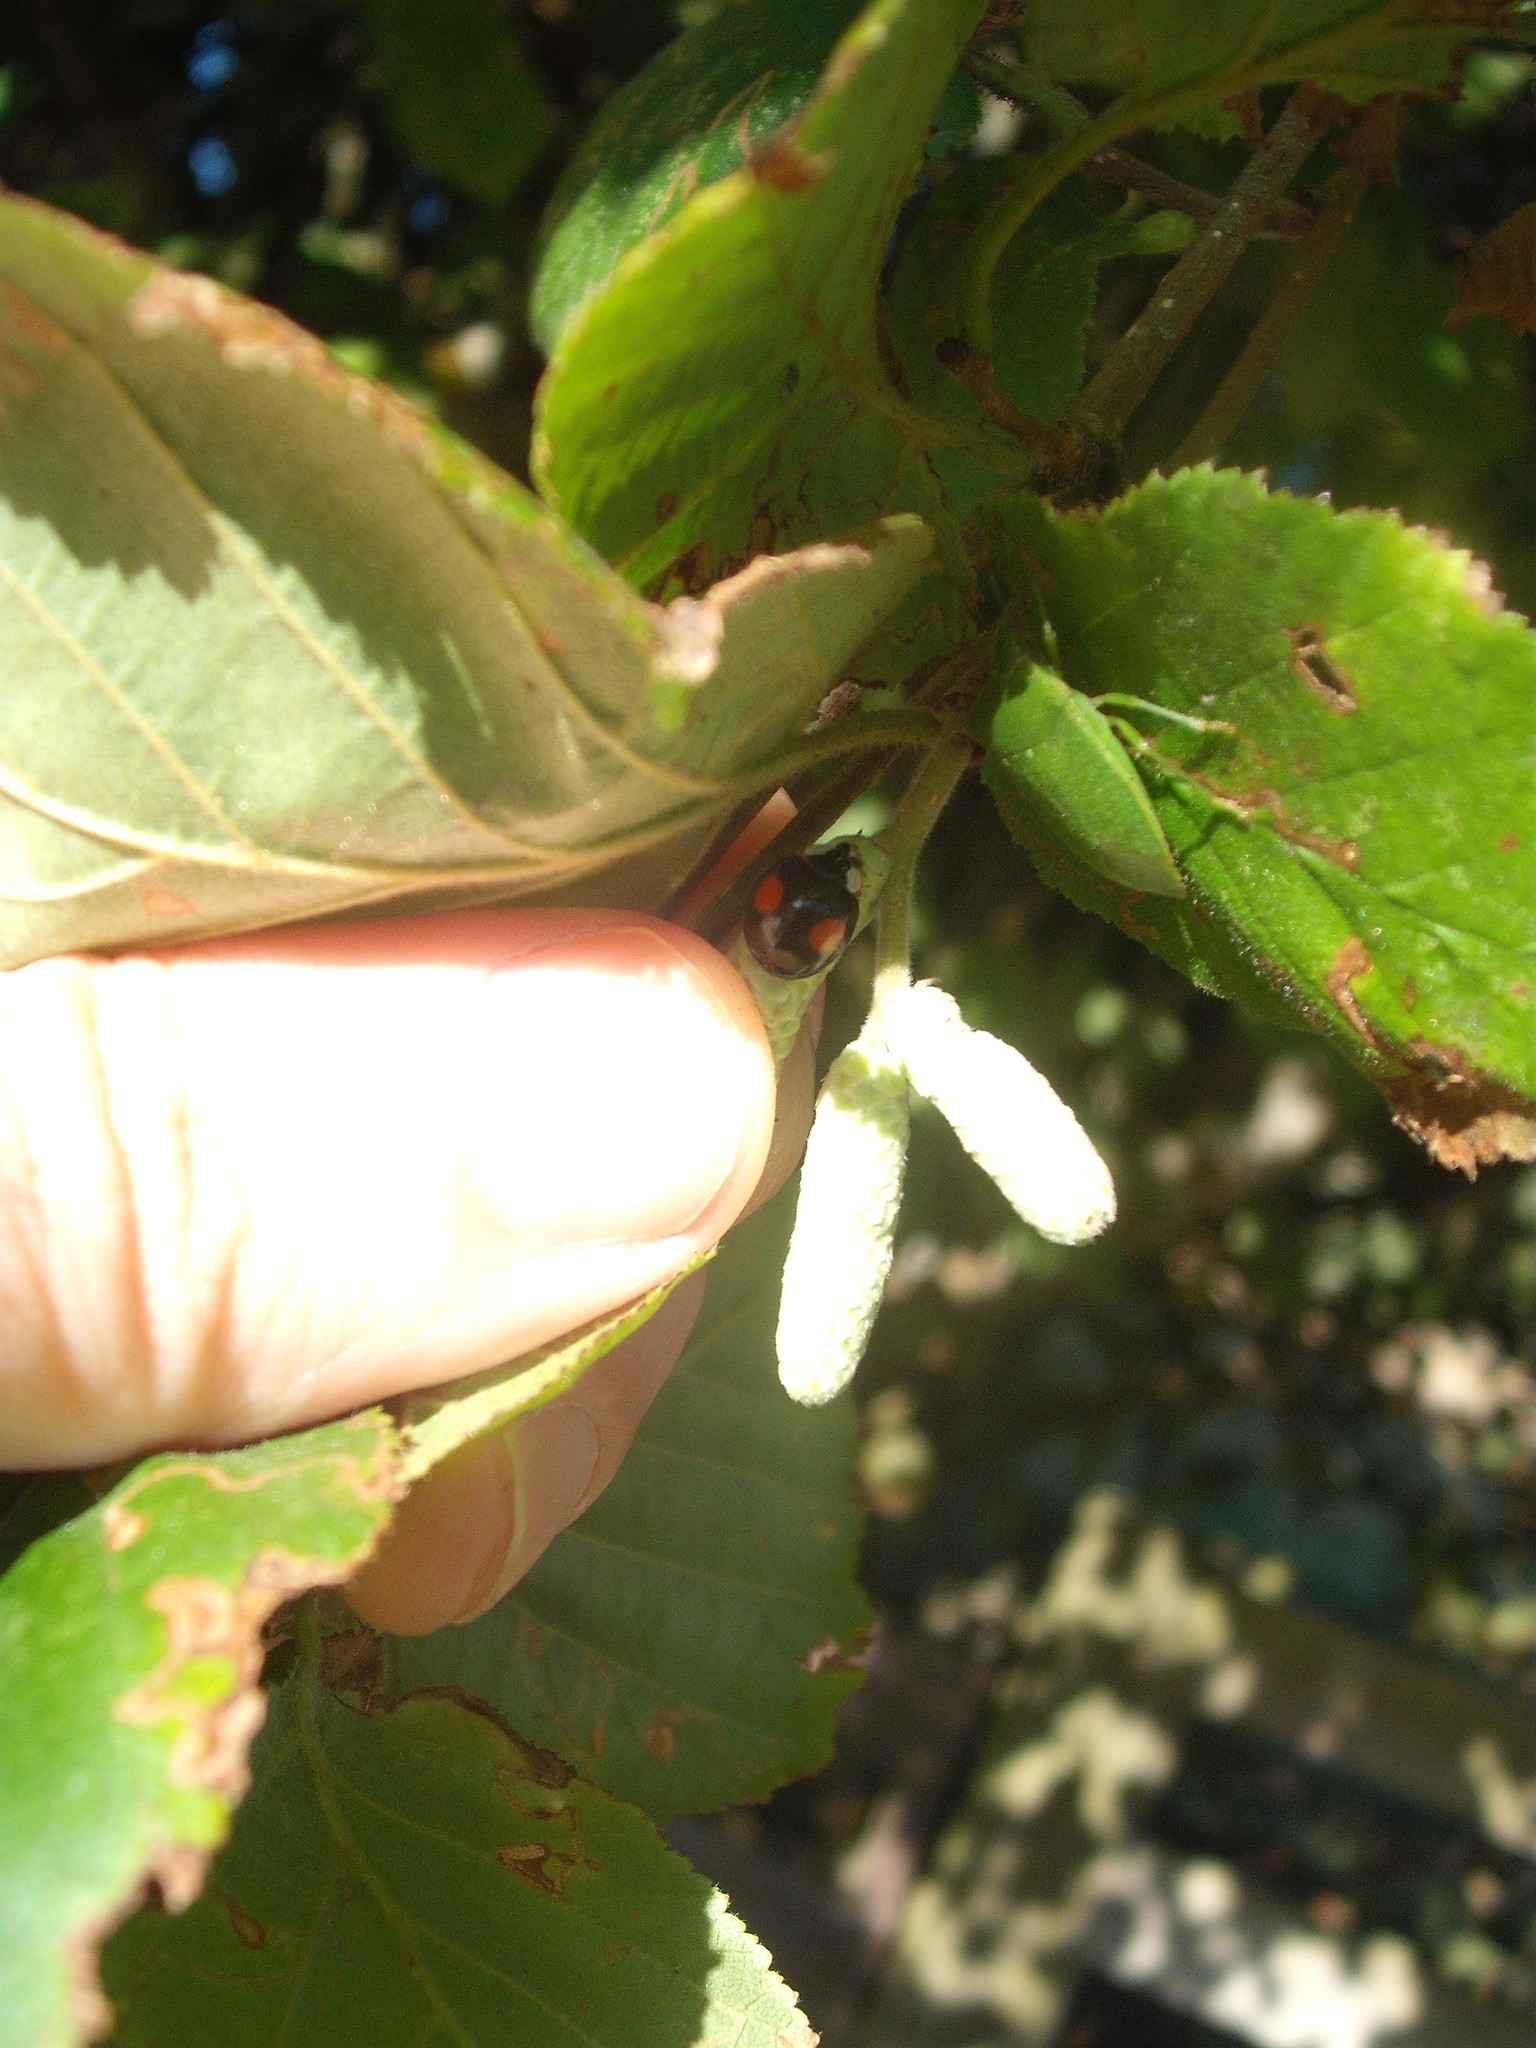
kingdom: Animalia
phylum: Arthropoda
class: Insecta
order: Coleoptera
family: Coccinellidae
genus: Harmonia
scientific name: Harmonia axyridis
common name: Harlequin ladybird
